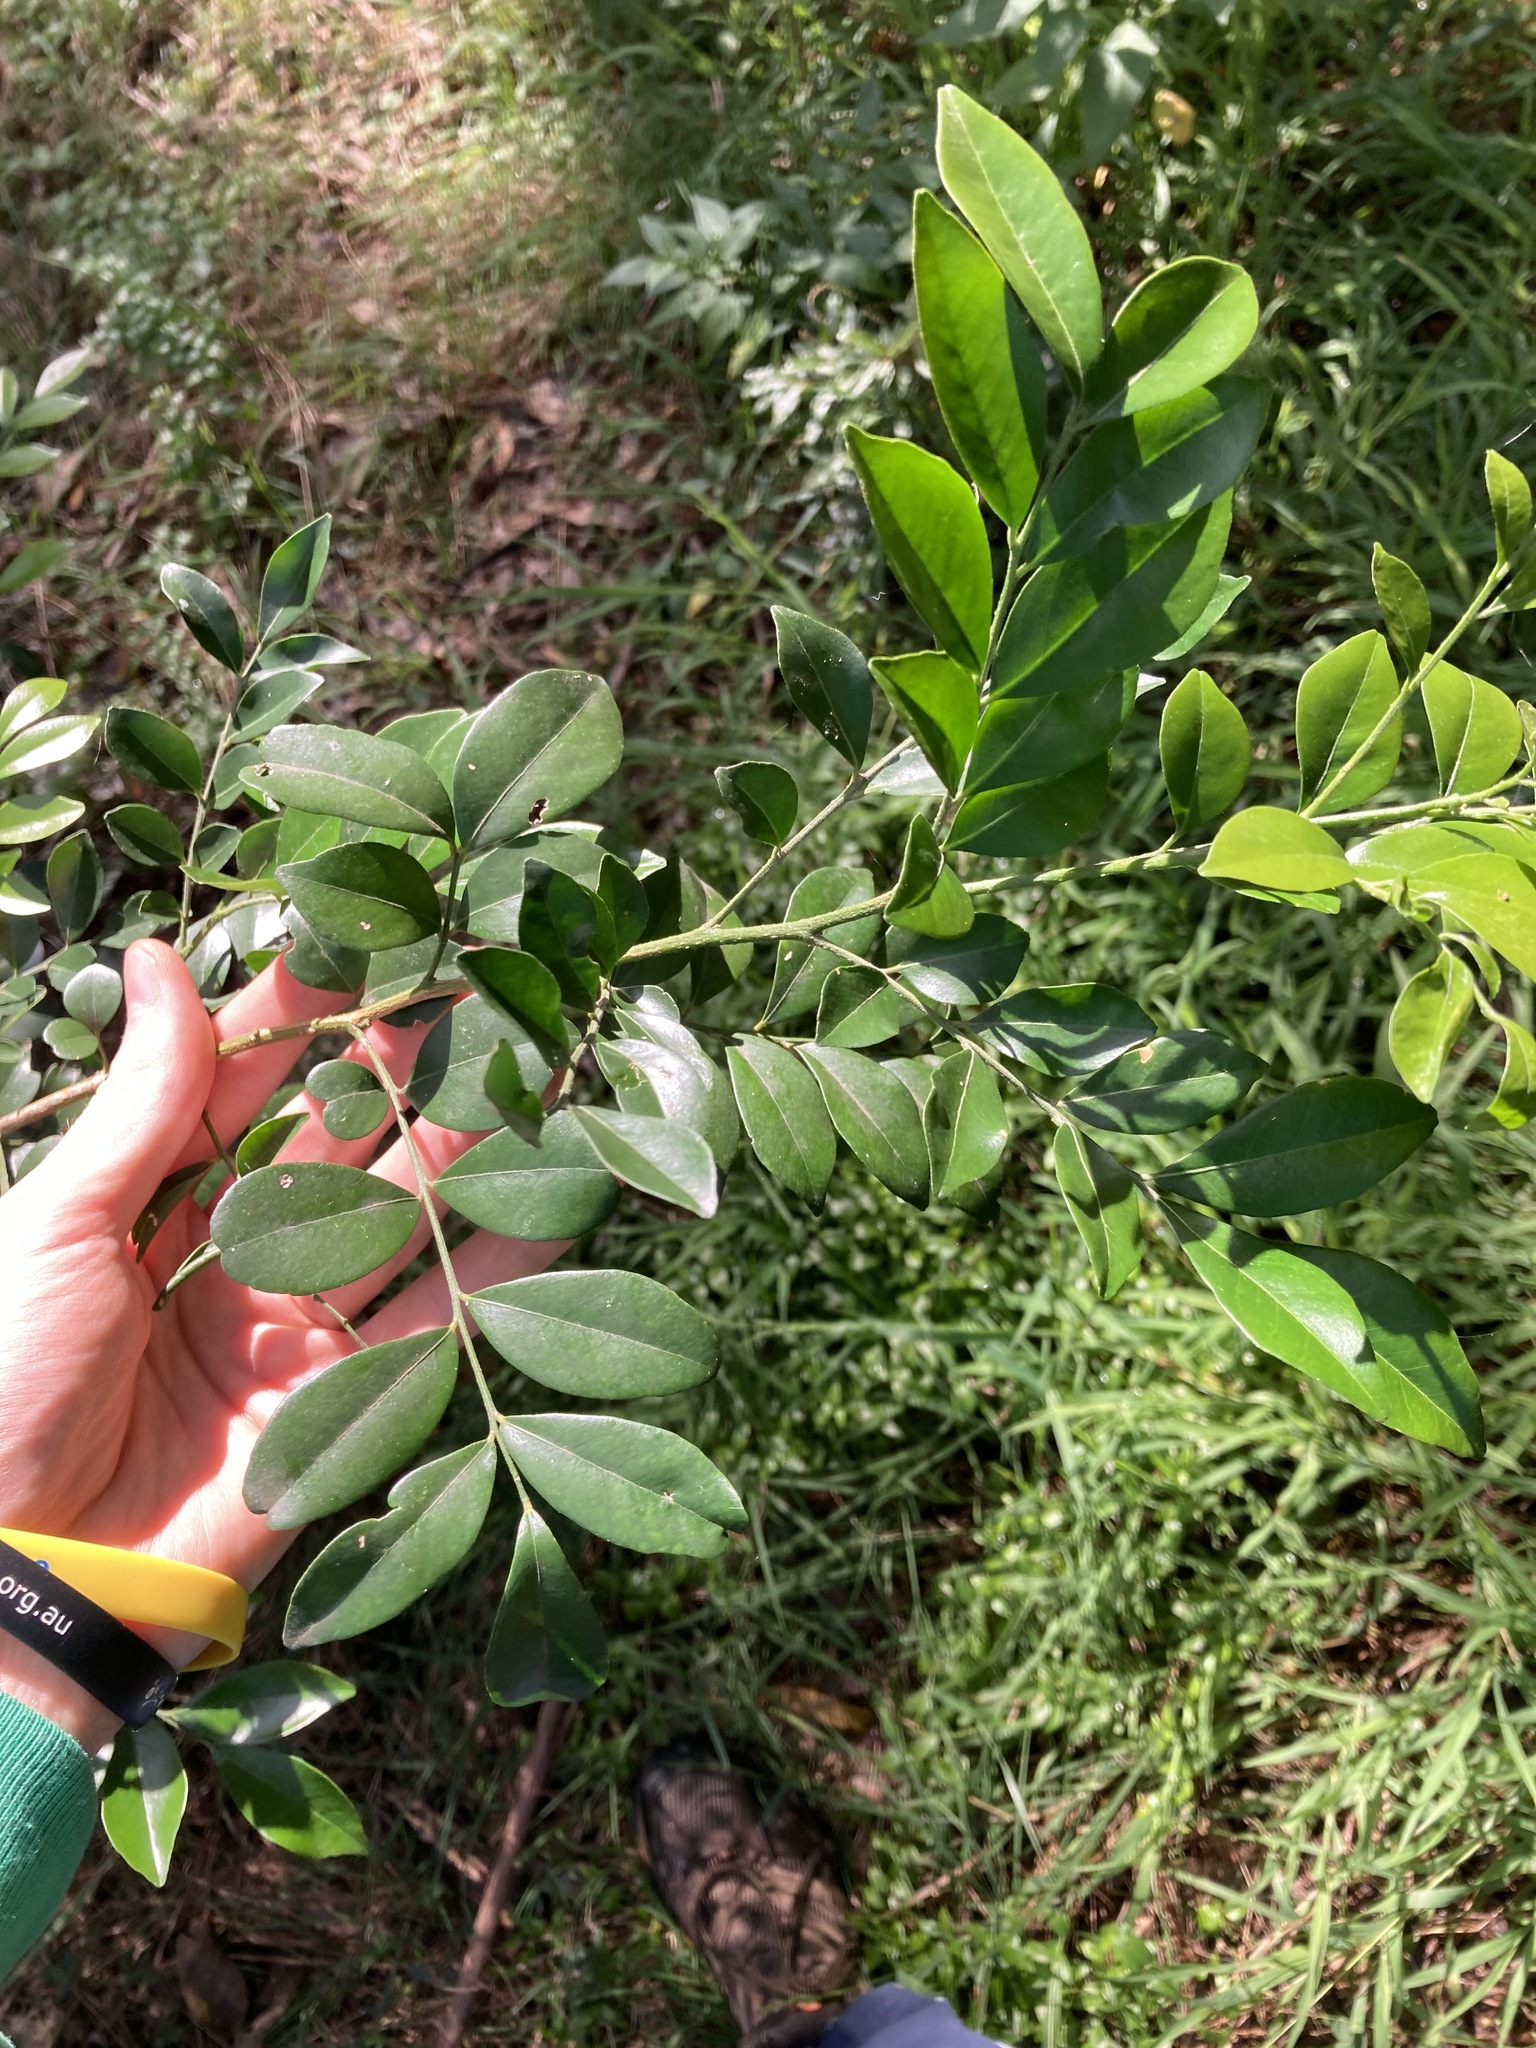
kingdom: Plantae
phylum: Tracheophyta
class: Magnoliopsida
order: Sapindales
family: Rutaceae
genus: Murraya
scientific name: Murraya paniculata
